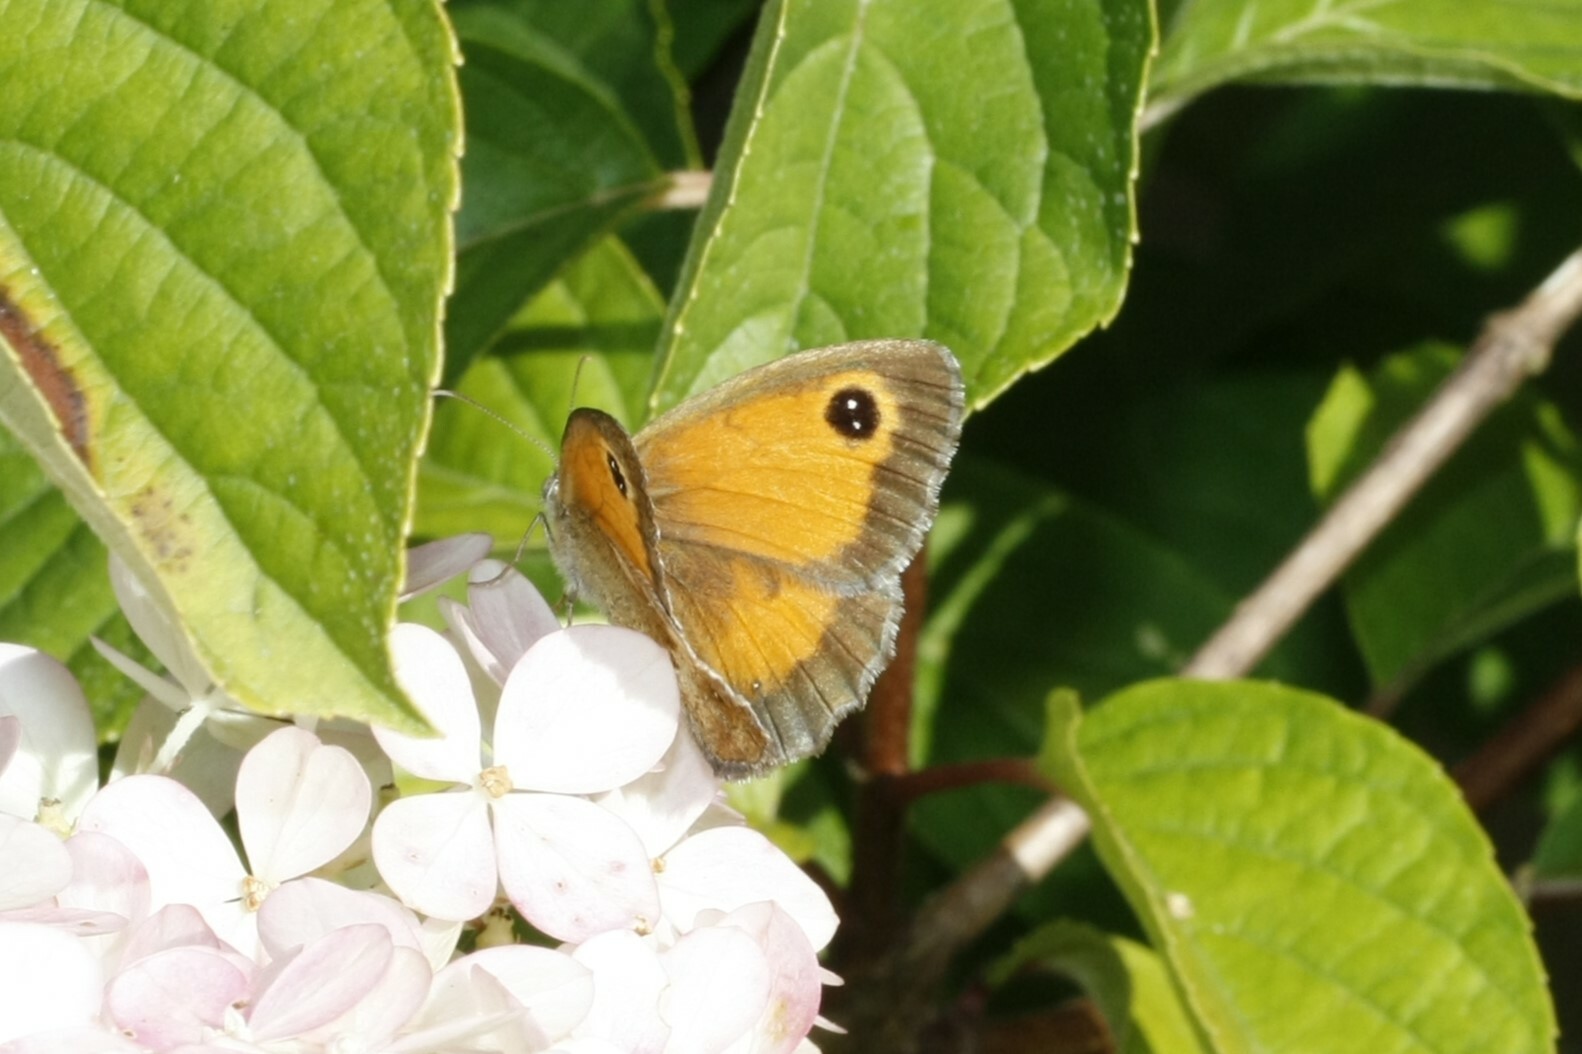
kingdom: Animalia
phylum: Arthropoda
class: Insecta
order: Lepidoptera
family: Nymphalidae
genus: Pyronia
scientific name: Pyronia tithonus
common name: Gatekeeper
